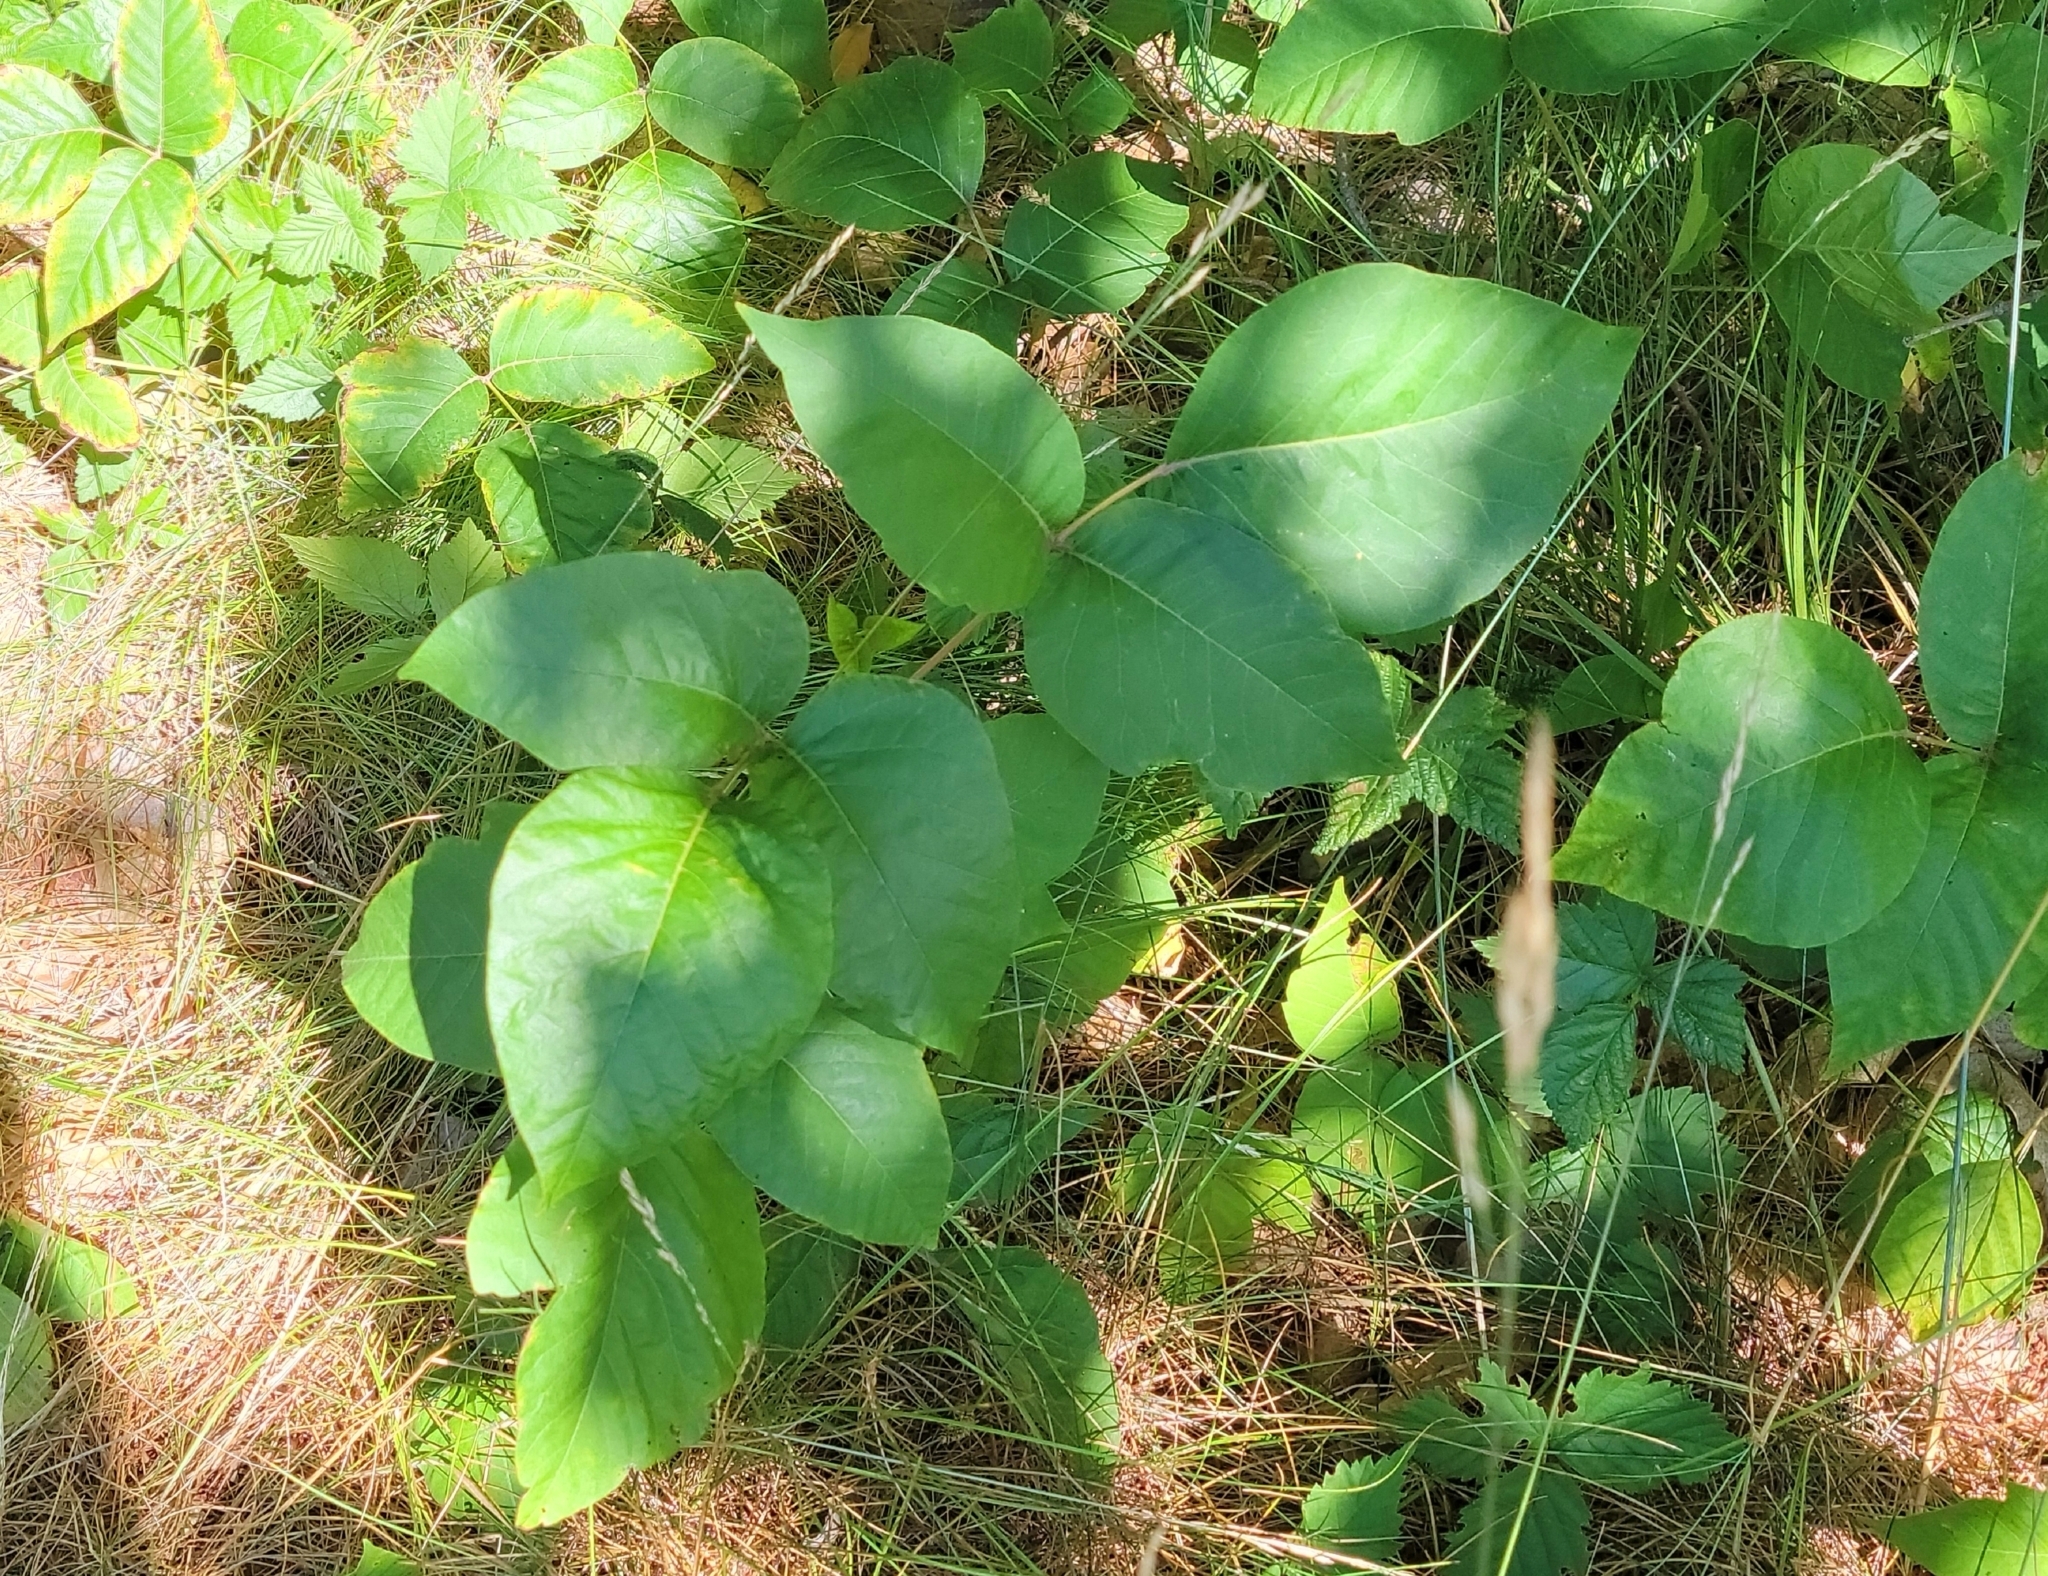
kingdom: Plantae
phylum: Tracheophyta
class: Magnoliopsida
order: Sapindales
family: Anacardiaceae
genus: Toxicodendron
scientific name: Toxicodendron radicans
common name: Poison ivy
